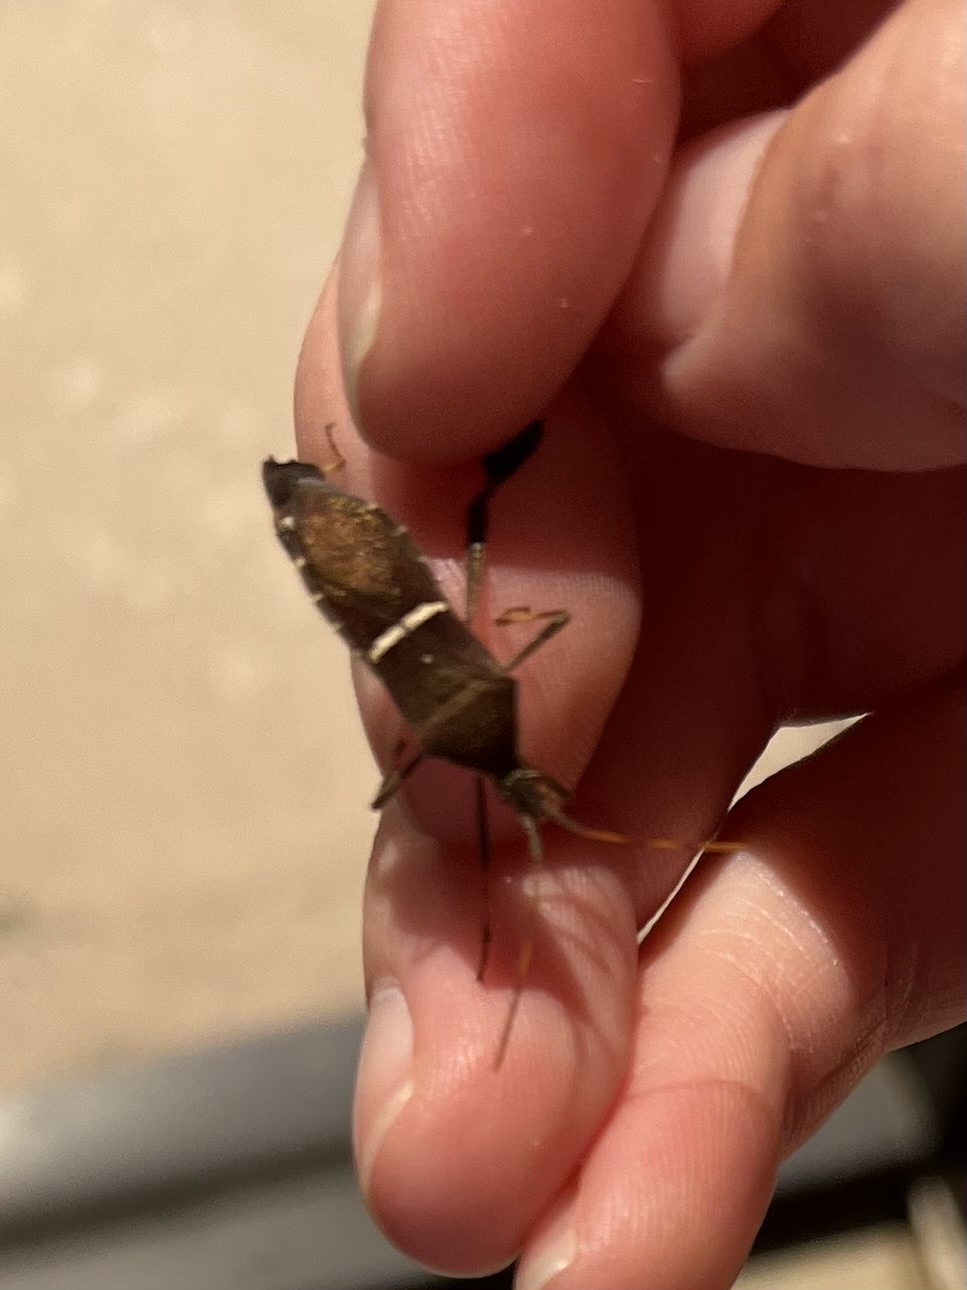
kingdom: Animalia
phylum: Arthropoda
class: Insecta
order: Hemiptera
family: Coreidae
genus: Leptoglossus
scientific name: Leptoglossus phyllopus
